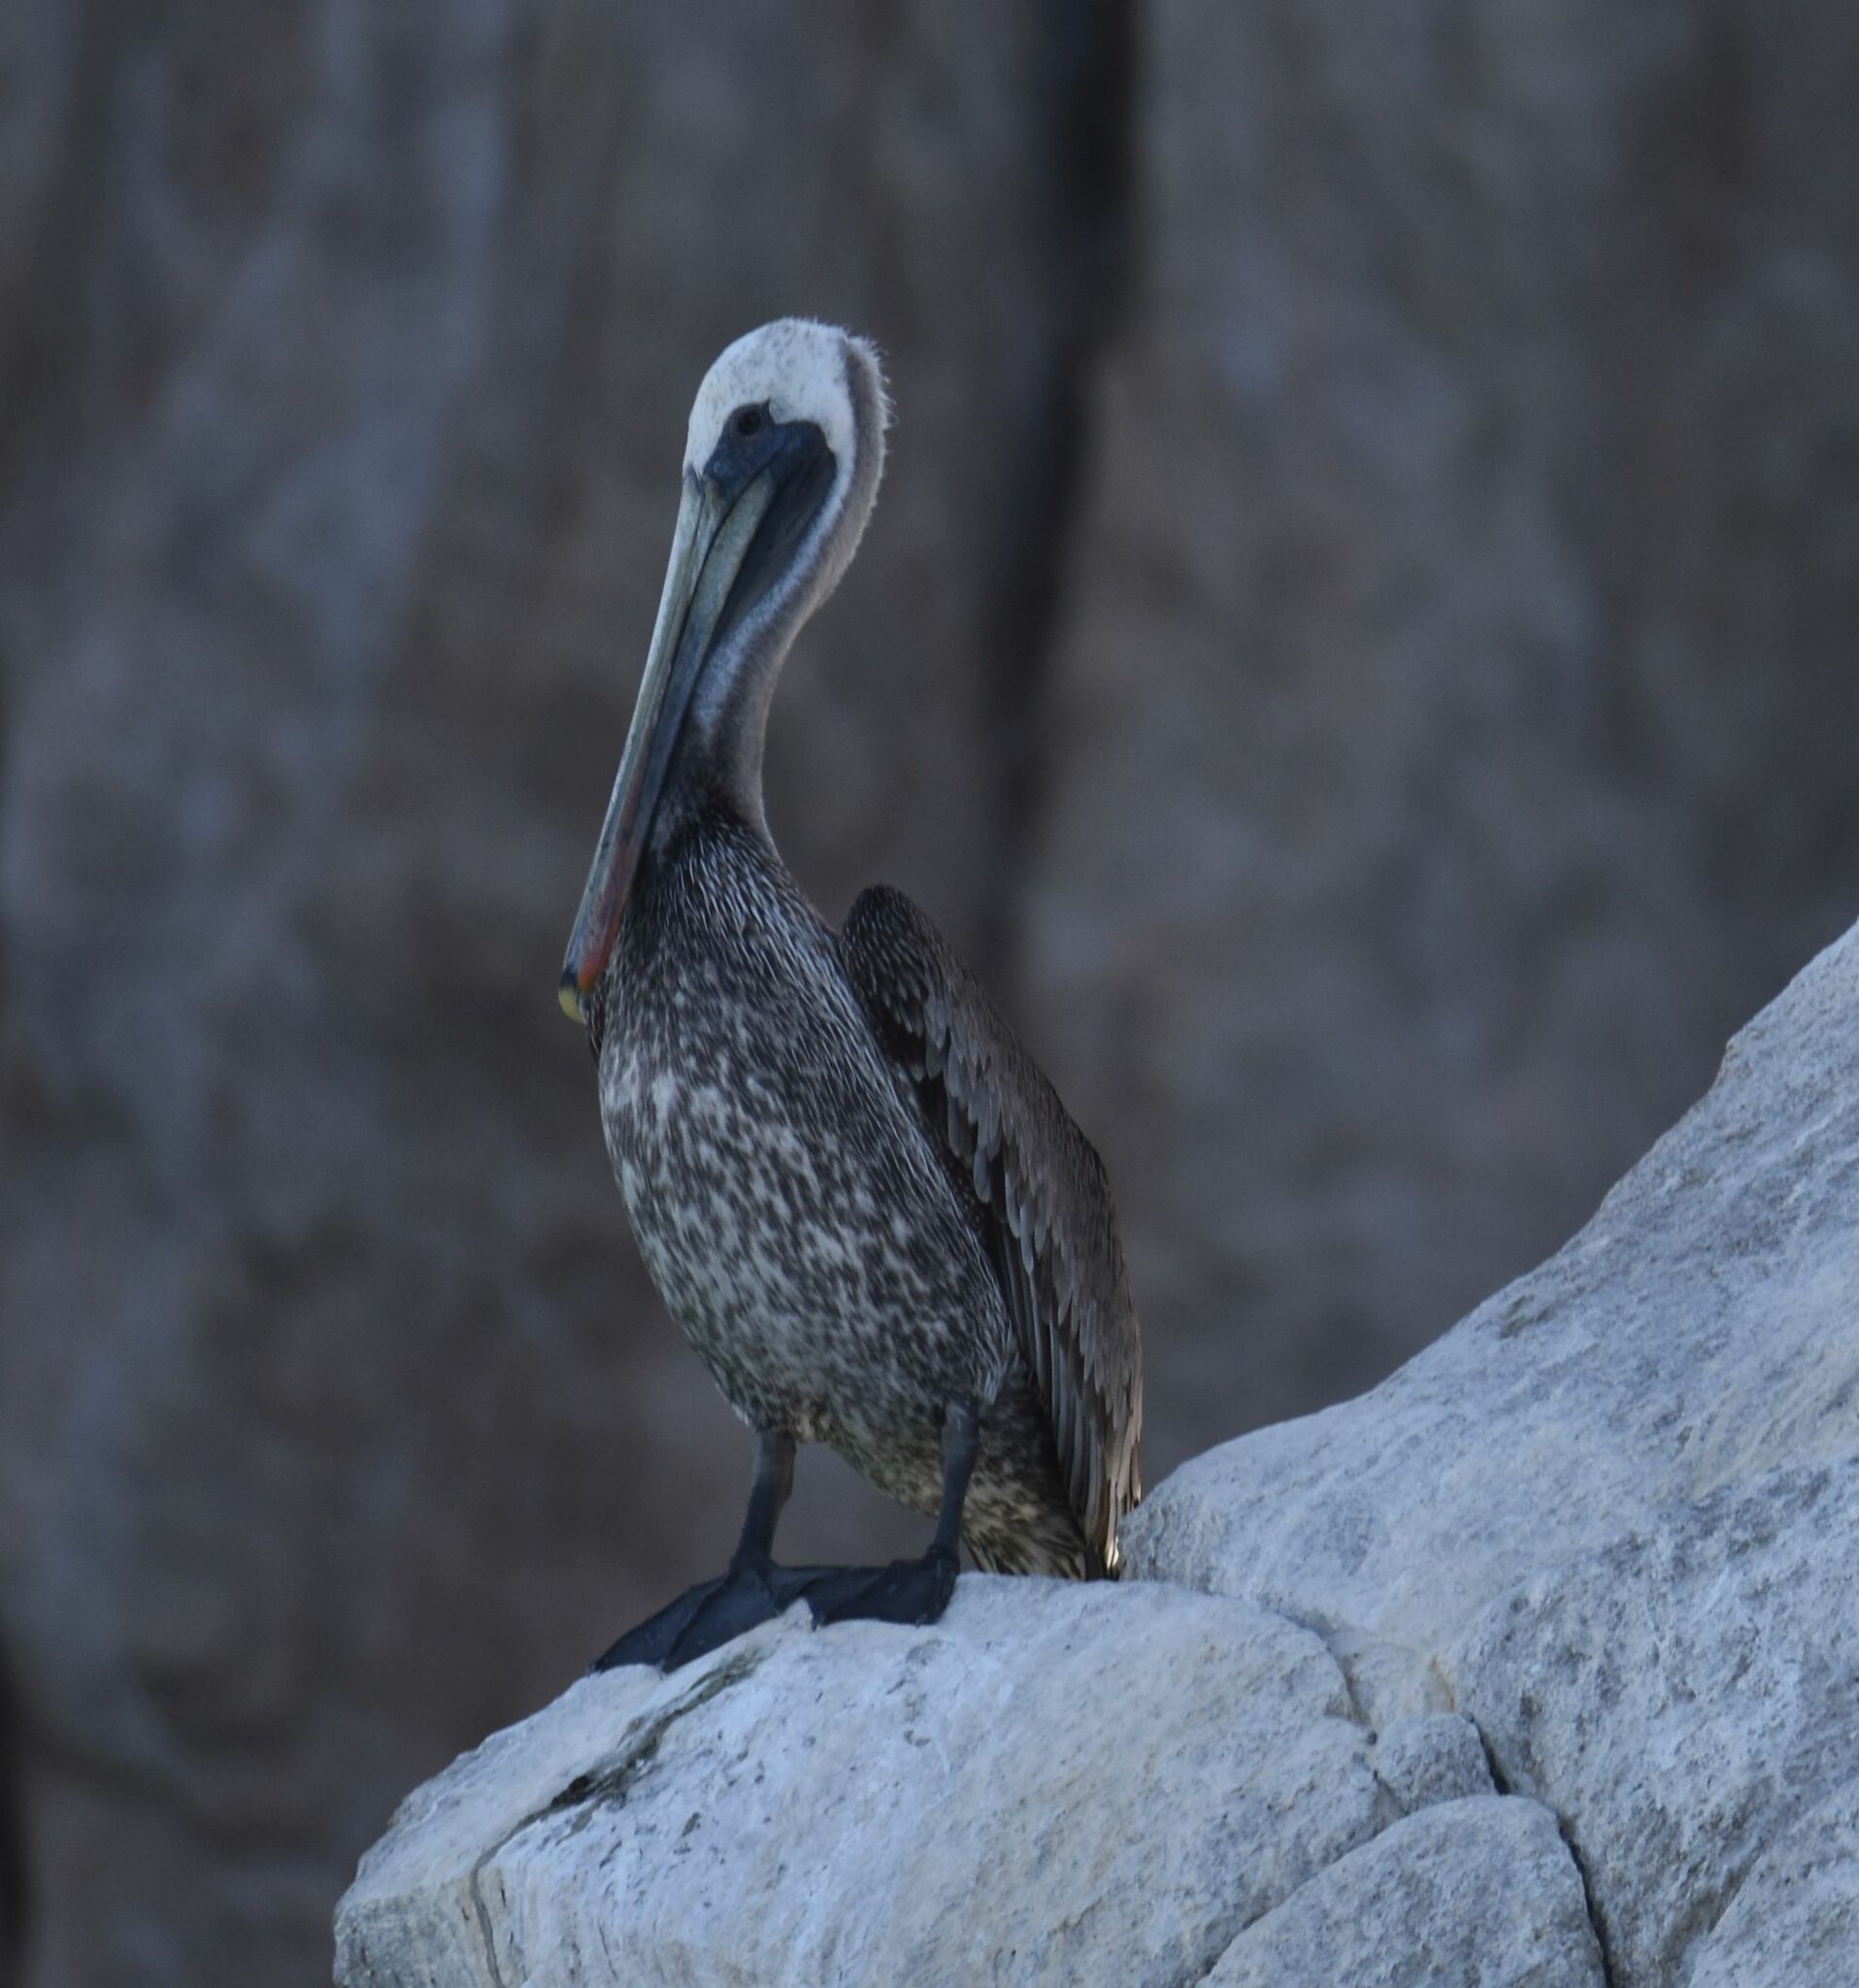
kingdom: Animalia
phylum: Chordata
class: Aves
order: Pelecaniformes
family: Pelecanidae
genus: Pelecanus
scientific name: Pelecanus occidentalis
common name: Brown pelican
